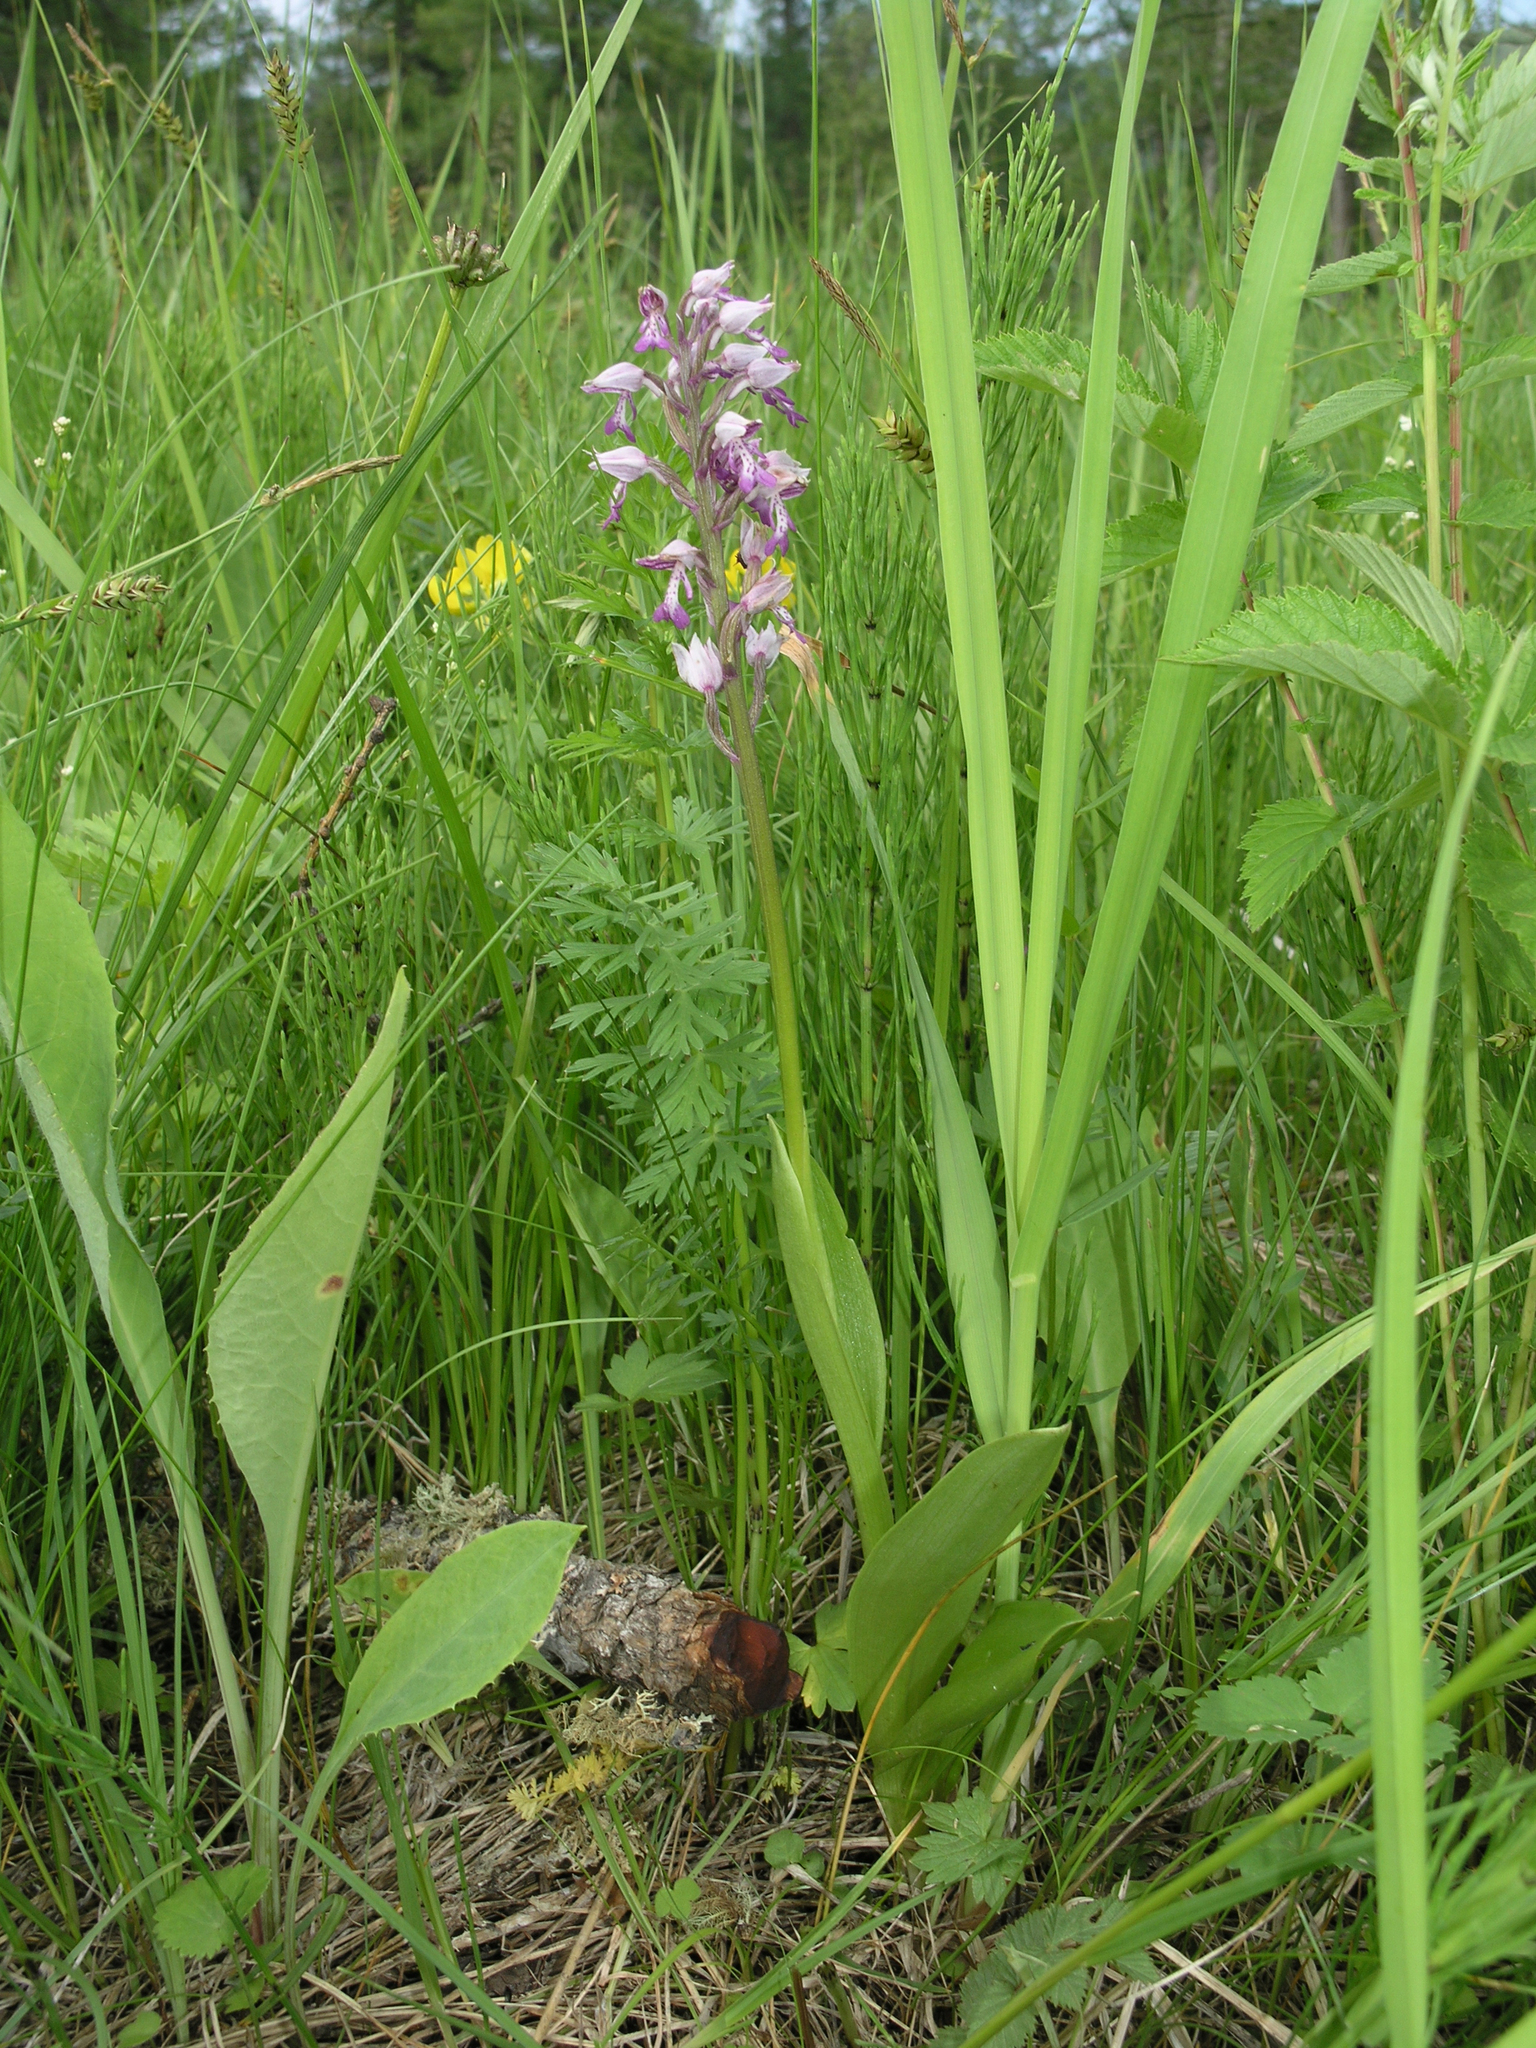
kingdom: Plantae
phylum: Tracheophyta
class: Liliopsida
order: Asparagales
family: Orchidaceae
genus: Orchis
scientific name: Orchis militaris
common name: Military orchid
